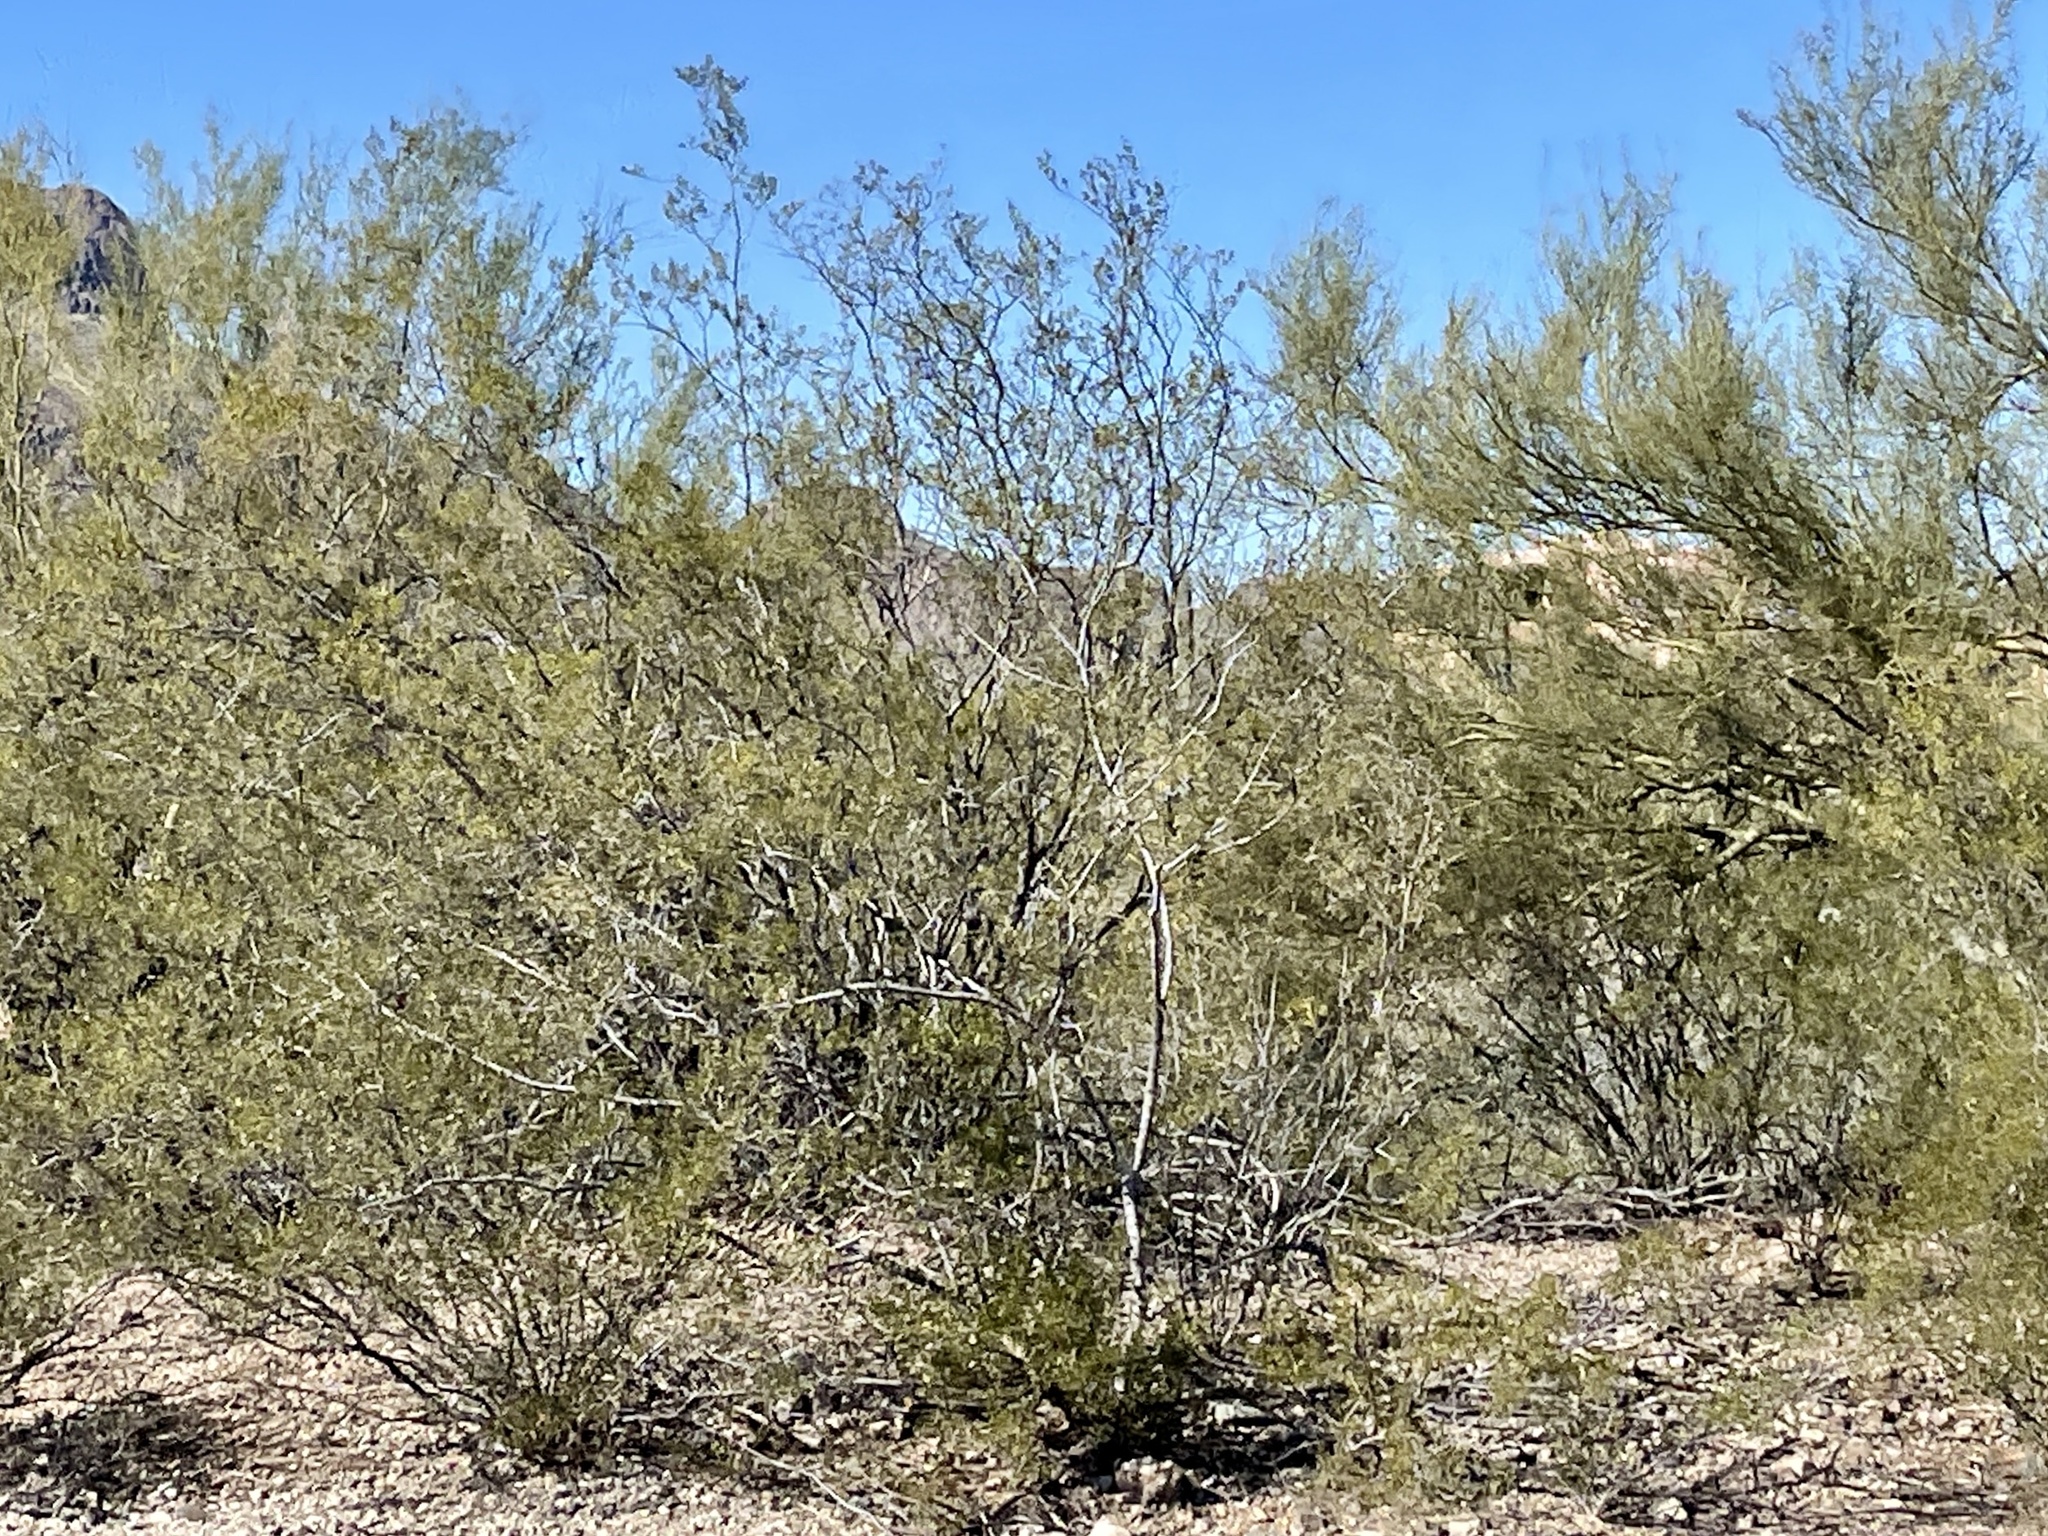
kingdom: Plantae
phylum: Tracheophyta
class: Magnoliopsida
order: Zygophyllales
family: Zygophyllaceae
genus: Larrea
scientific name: Larrea tridentata
